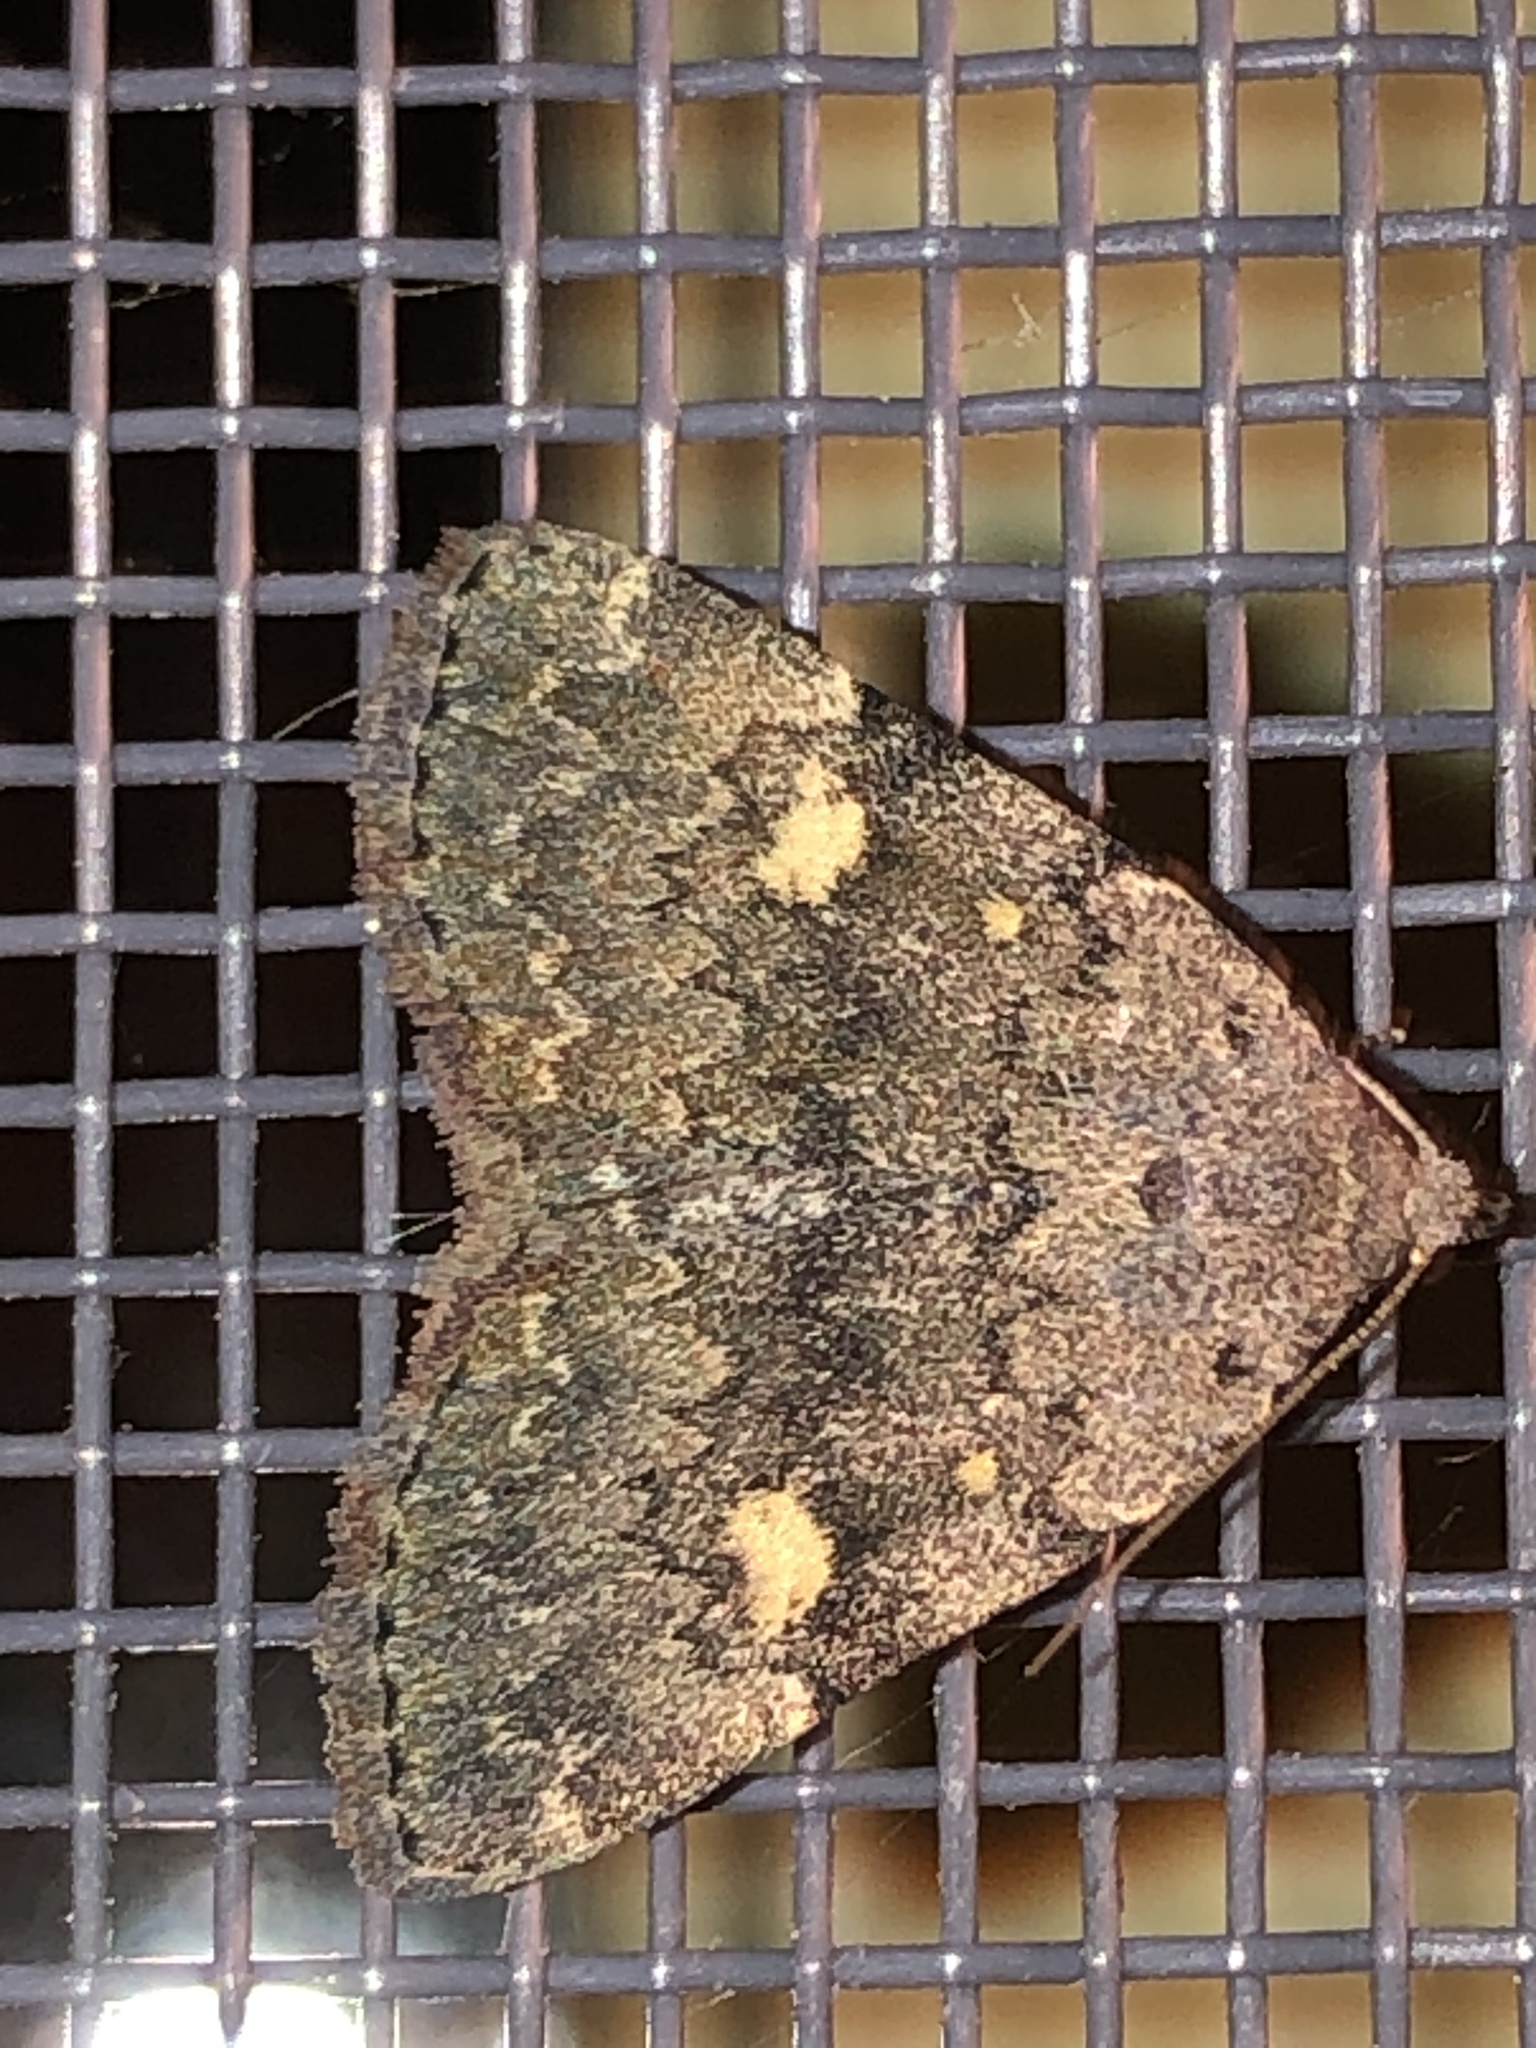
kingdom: Animalia
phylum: Arthropoda
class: Insecta
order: Lepidoptera
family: Erebidae
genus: Idia
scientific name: Idia aemula
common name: Common idia moth
